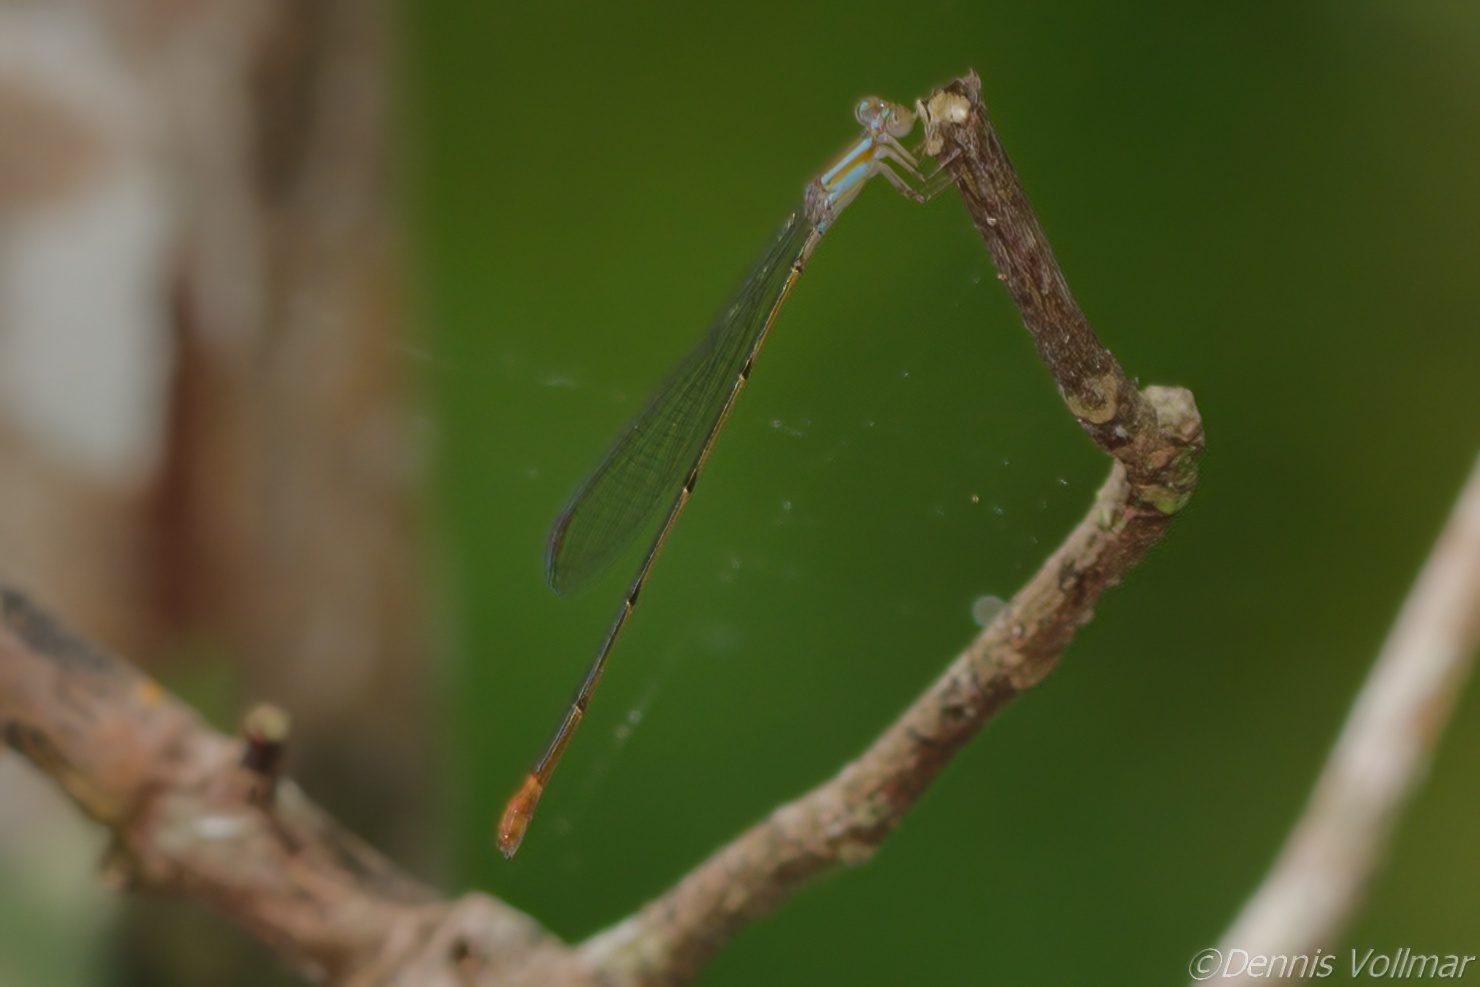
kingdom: Animalia
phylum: Arthropoda
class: Insecta
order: Odonata
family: Coenagrionidae
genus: Leptobasis
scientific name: Leptobasis lucifer
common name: Lucifer swampdamsel
